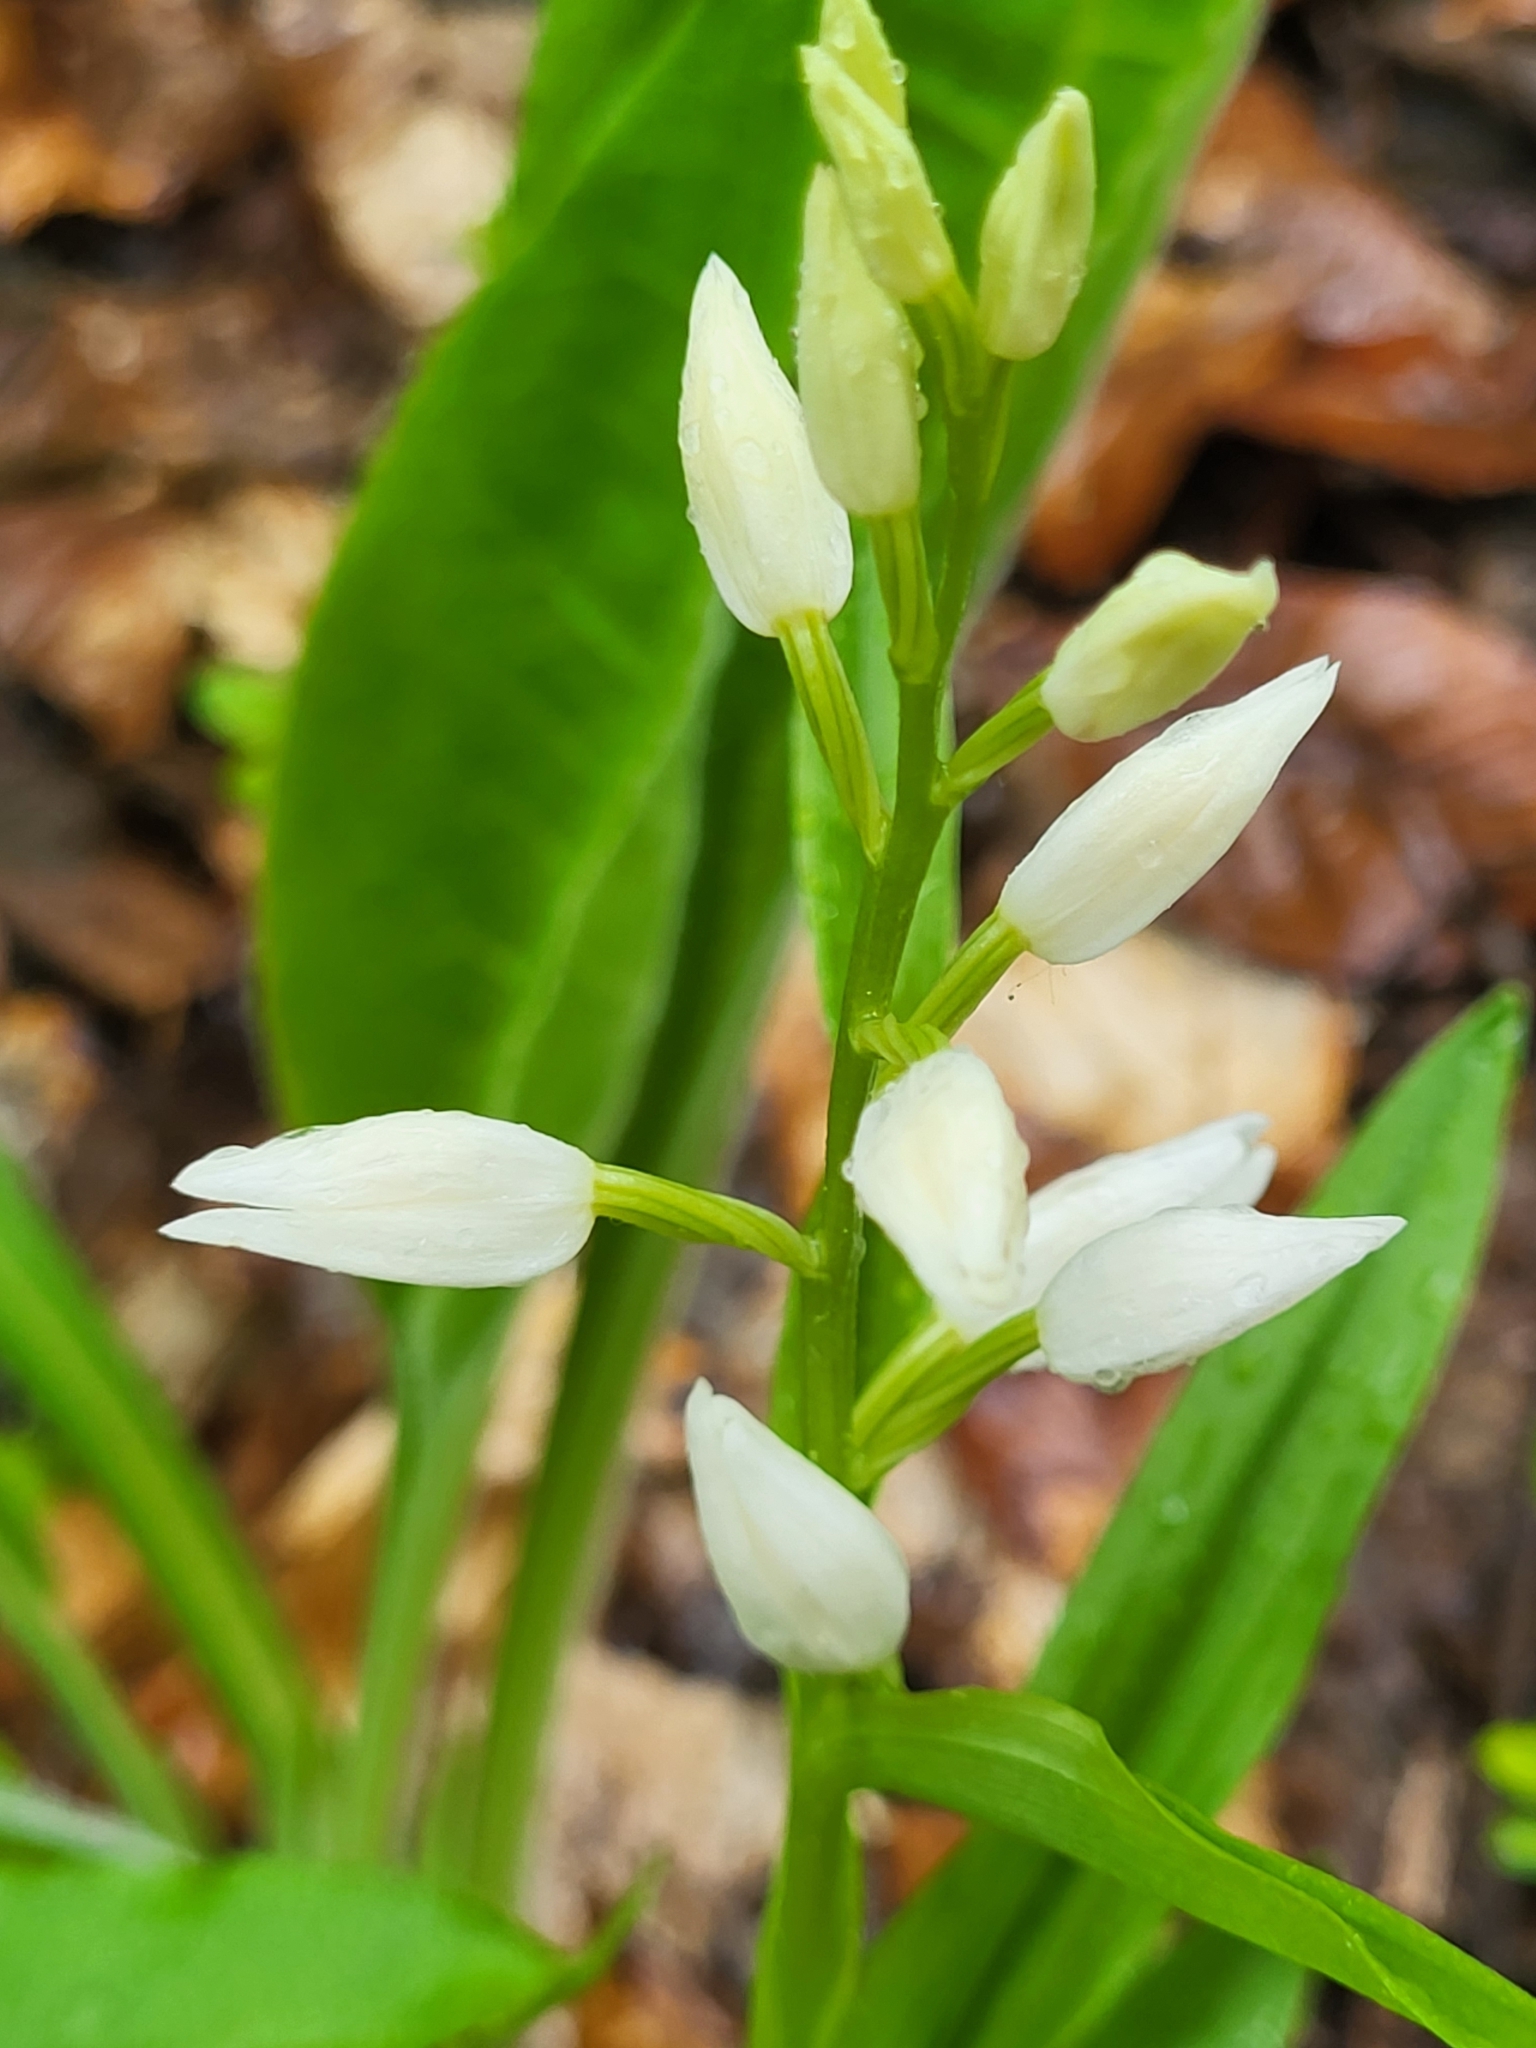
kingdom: Plantae
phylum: Tracheophyta
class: Liliopsida
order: Asparagales
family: Orchidaceae
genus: Cephalanthera
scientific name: Cephalanthera longifolia
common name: Narrow-leaved helleborine
